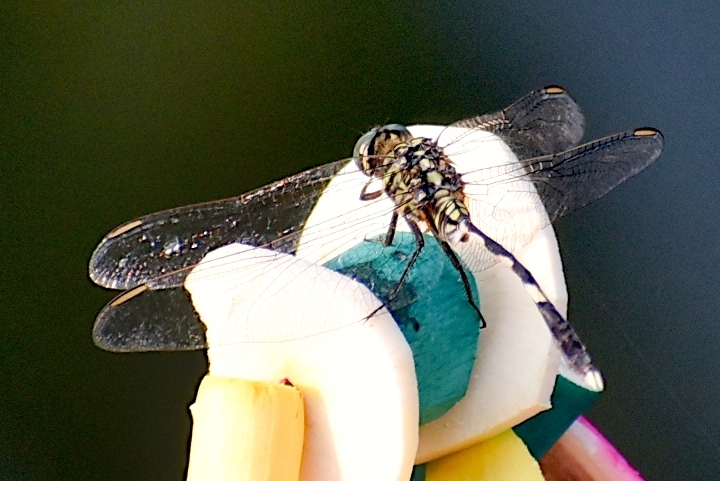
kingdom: Animalia
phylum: Arthropoda
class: Insecta
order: Odonata
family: Libellulidae
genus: Orthetrum
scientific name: Orthetrum sabina
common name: Slender skimmer
